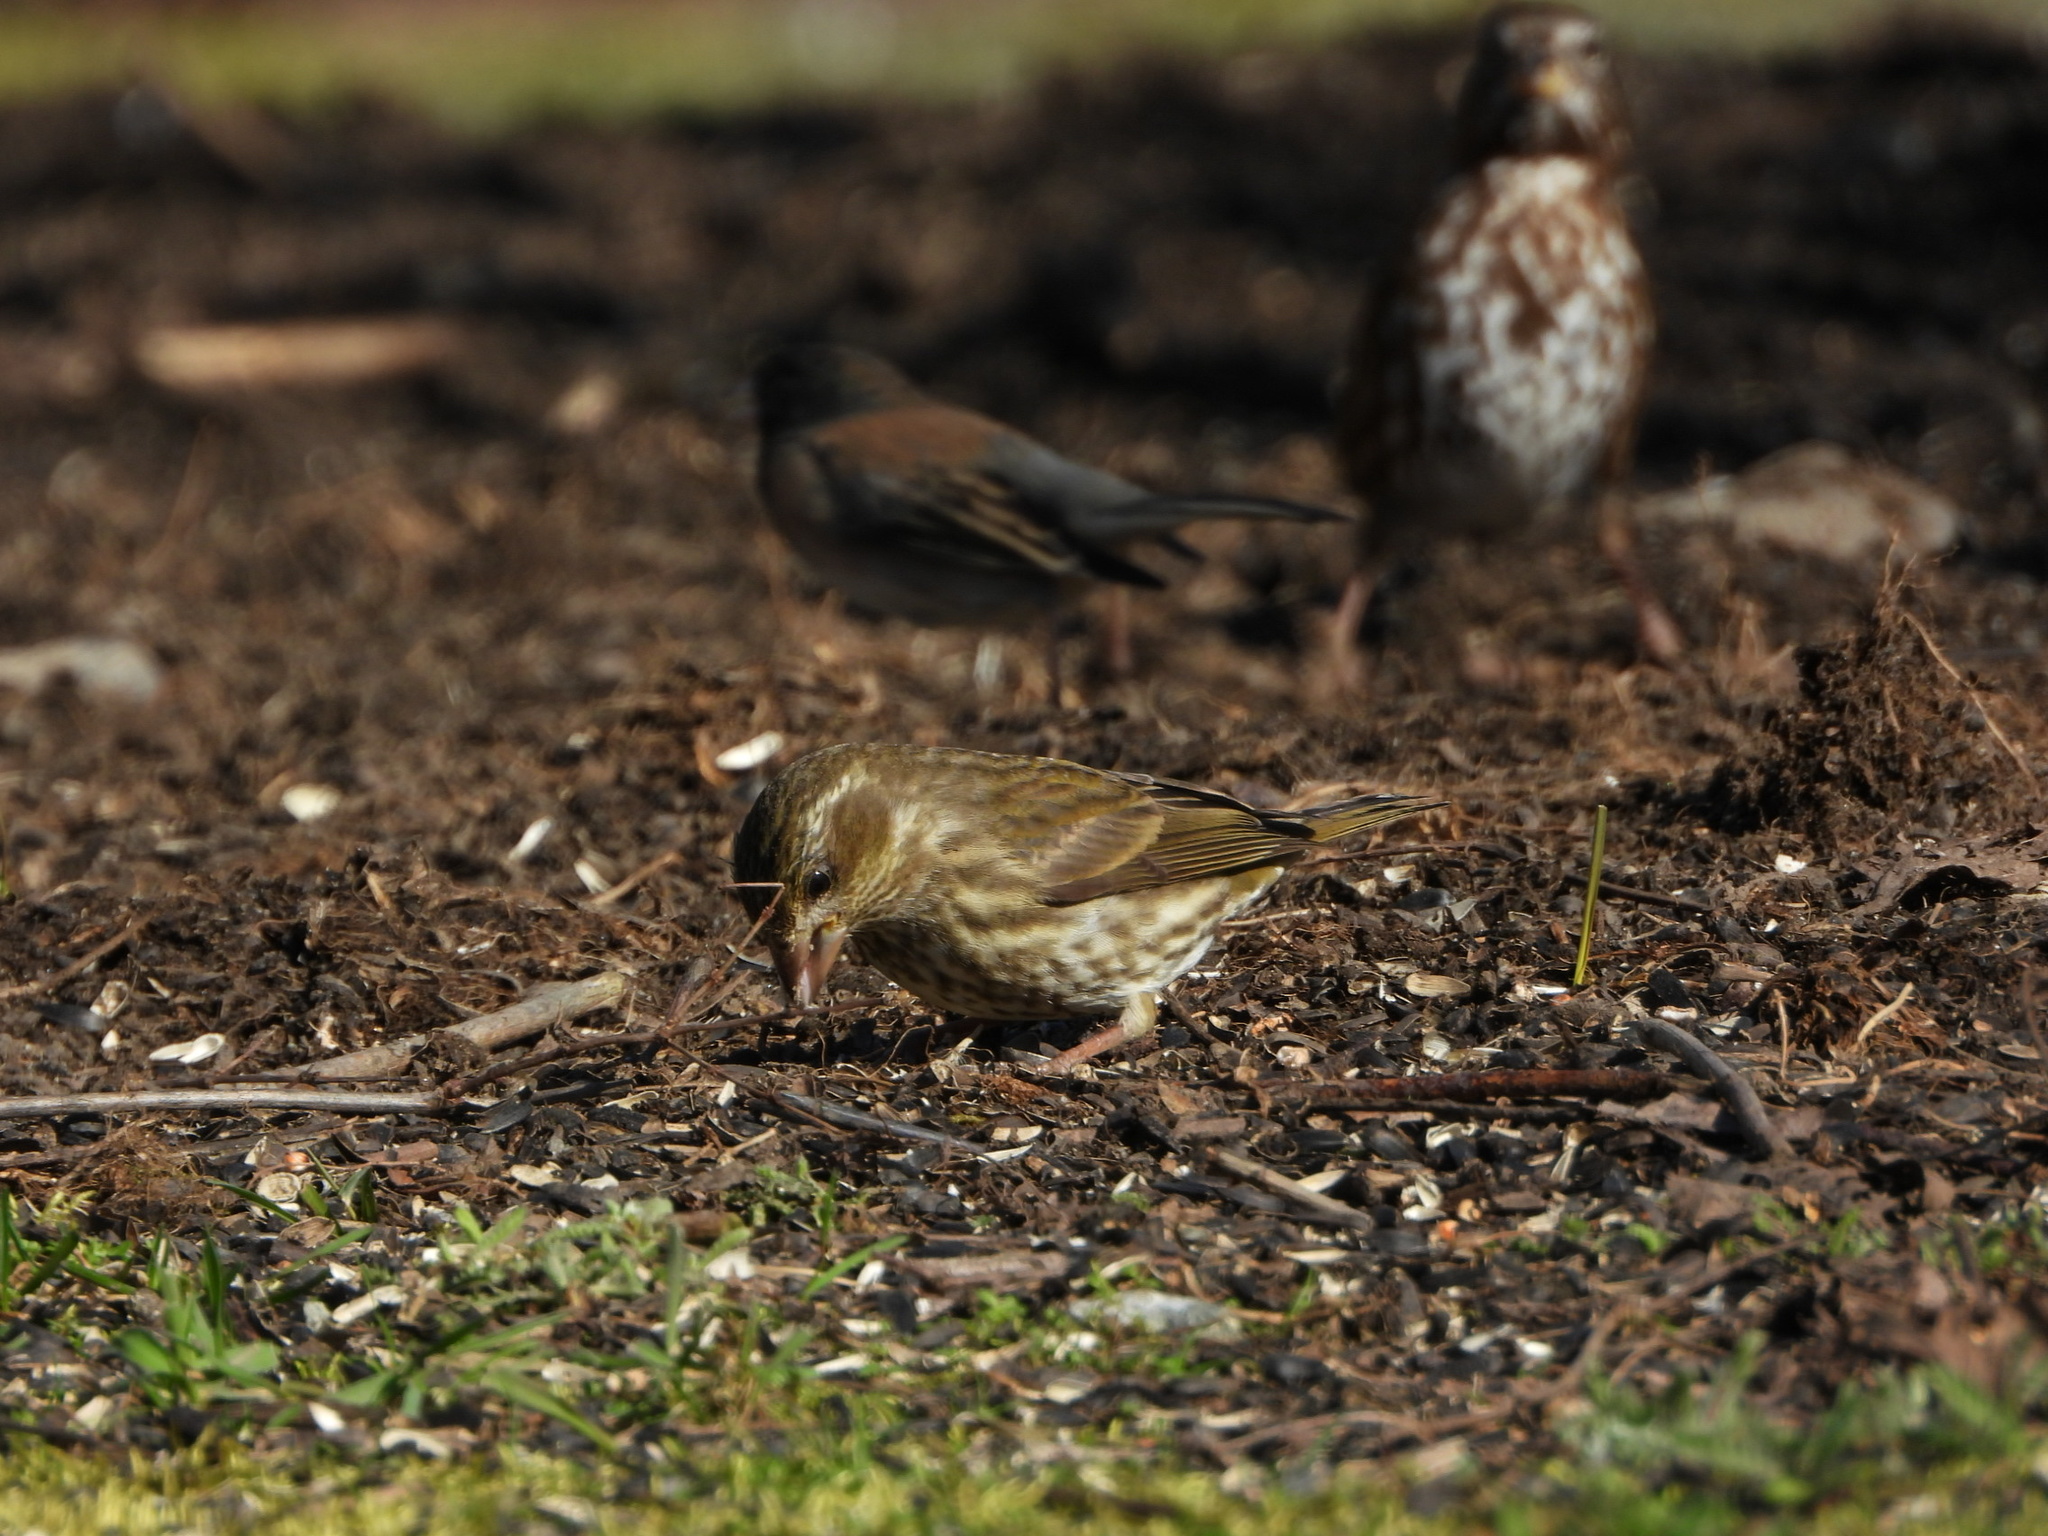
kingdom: Animalia
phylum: Chordata
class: Aves
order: Passeriformes
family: Fringillidae
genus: Haemorhous
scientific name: Haemorhous purpureus
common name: Purple finch
